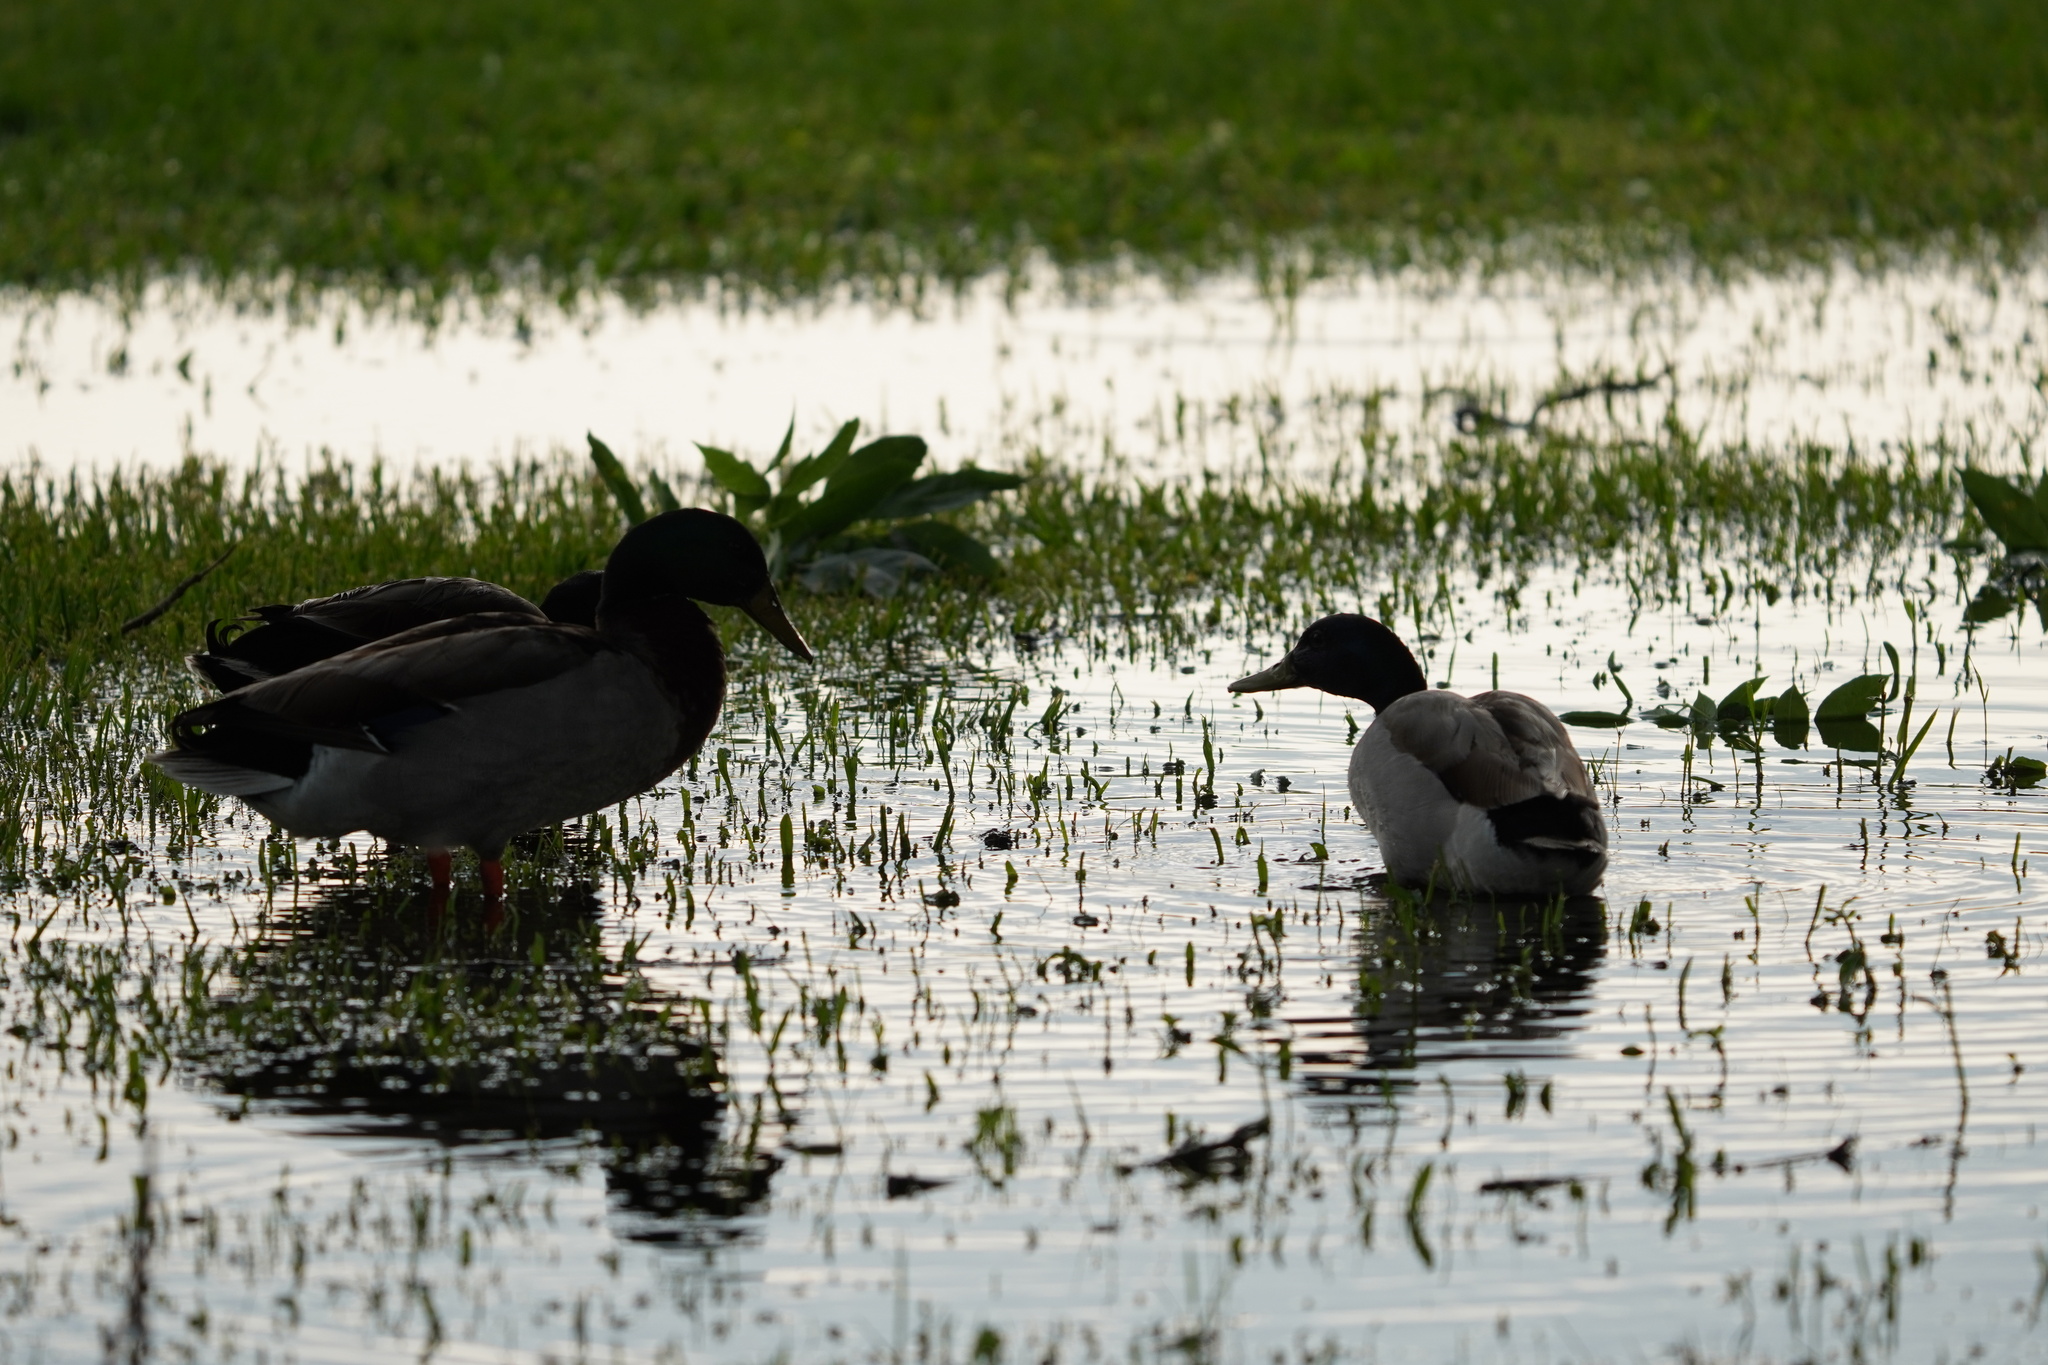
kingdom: Animalia
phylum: Chordata
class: Aves
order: Anseriformes
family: Anatidae
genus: Anas
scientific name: Anas platyrhynchos
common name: Mallard
